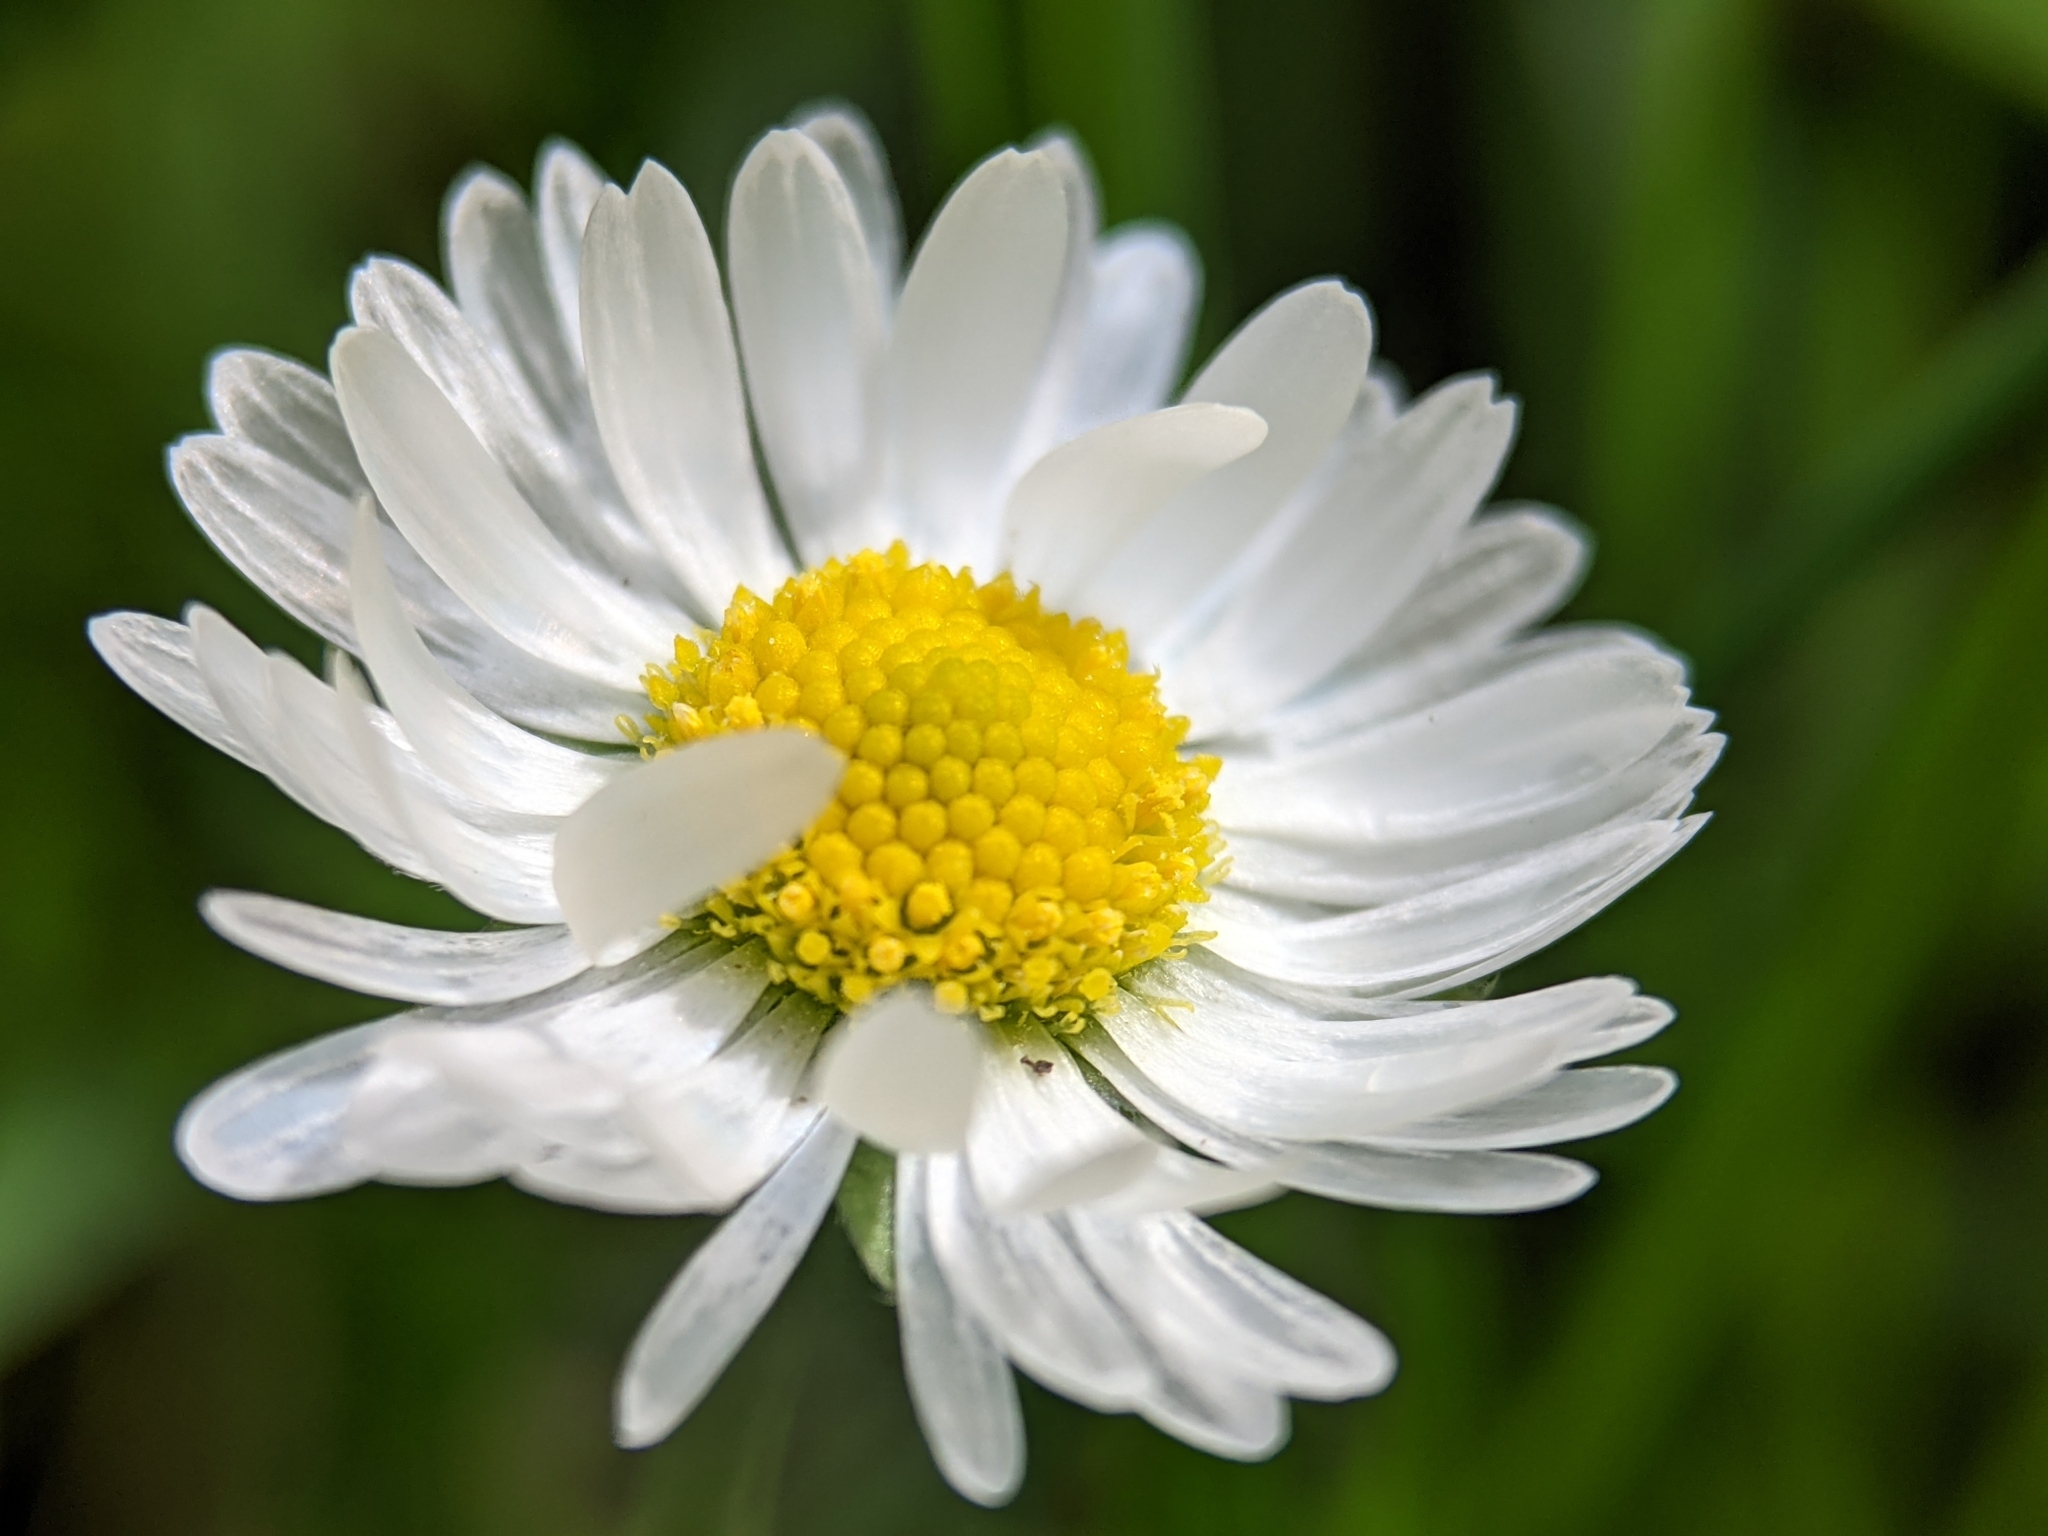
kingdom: Plantae
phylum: Tracheophyta
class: Magnoliopsida
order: Asterales
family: Asteraceae
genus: Bellis
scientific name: Bellis perennis
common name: Lawndaisy
